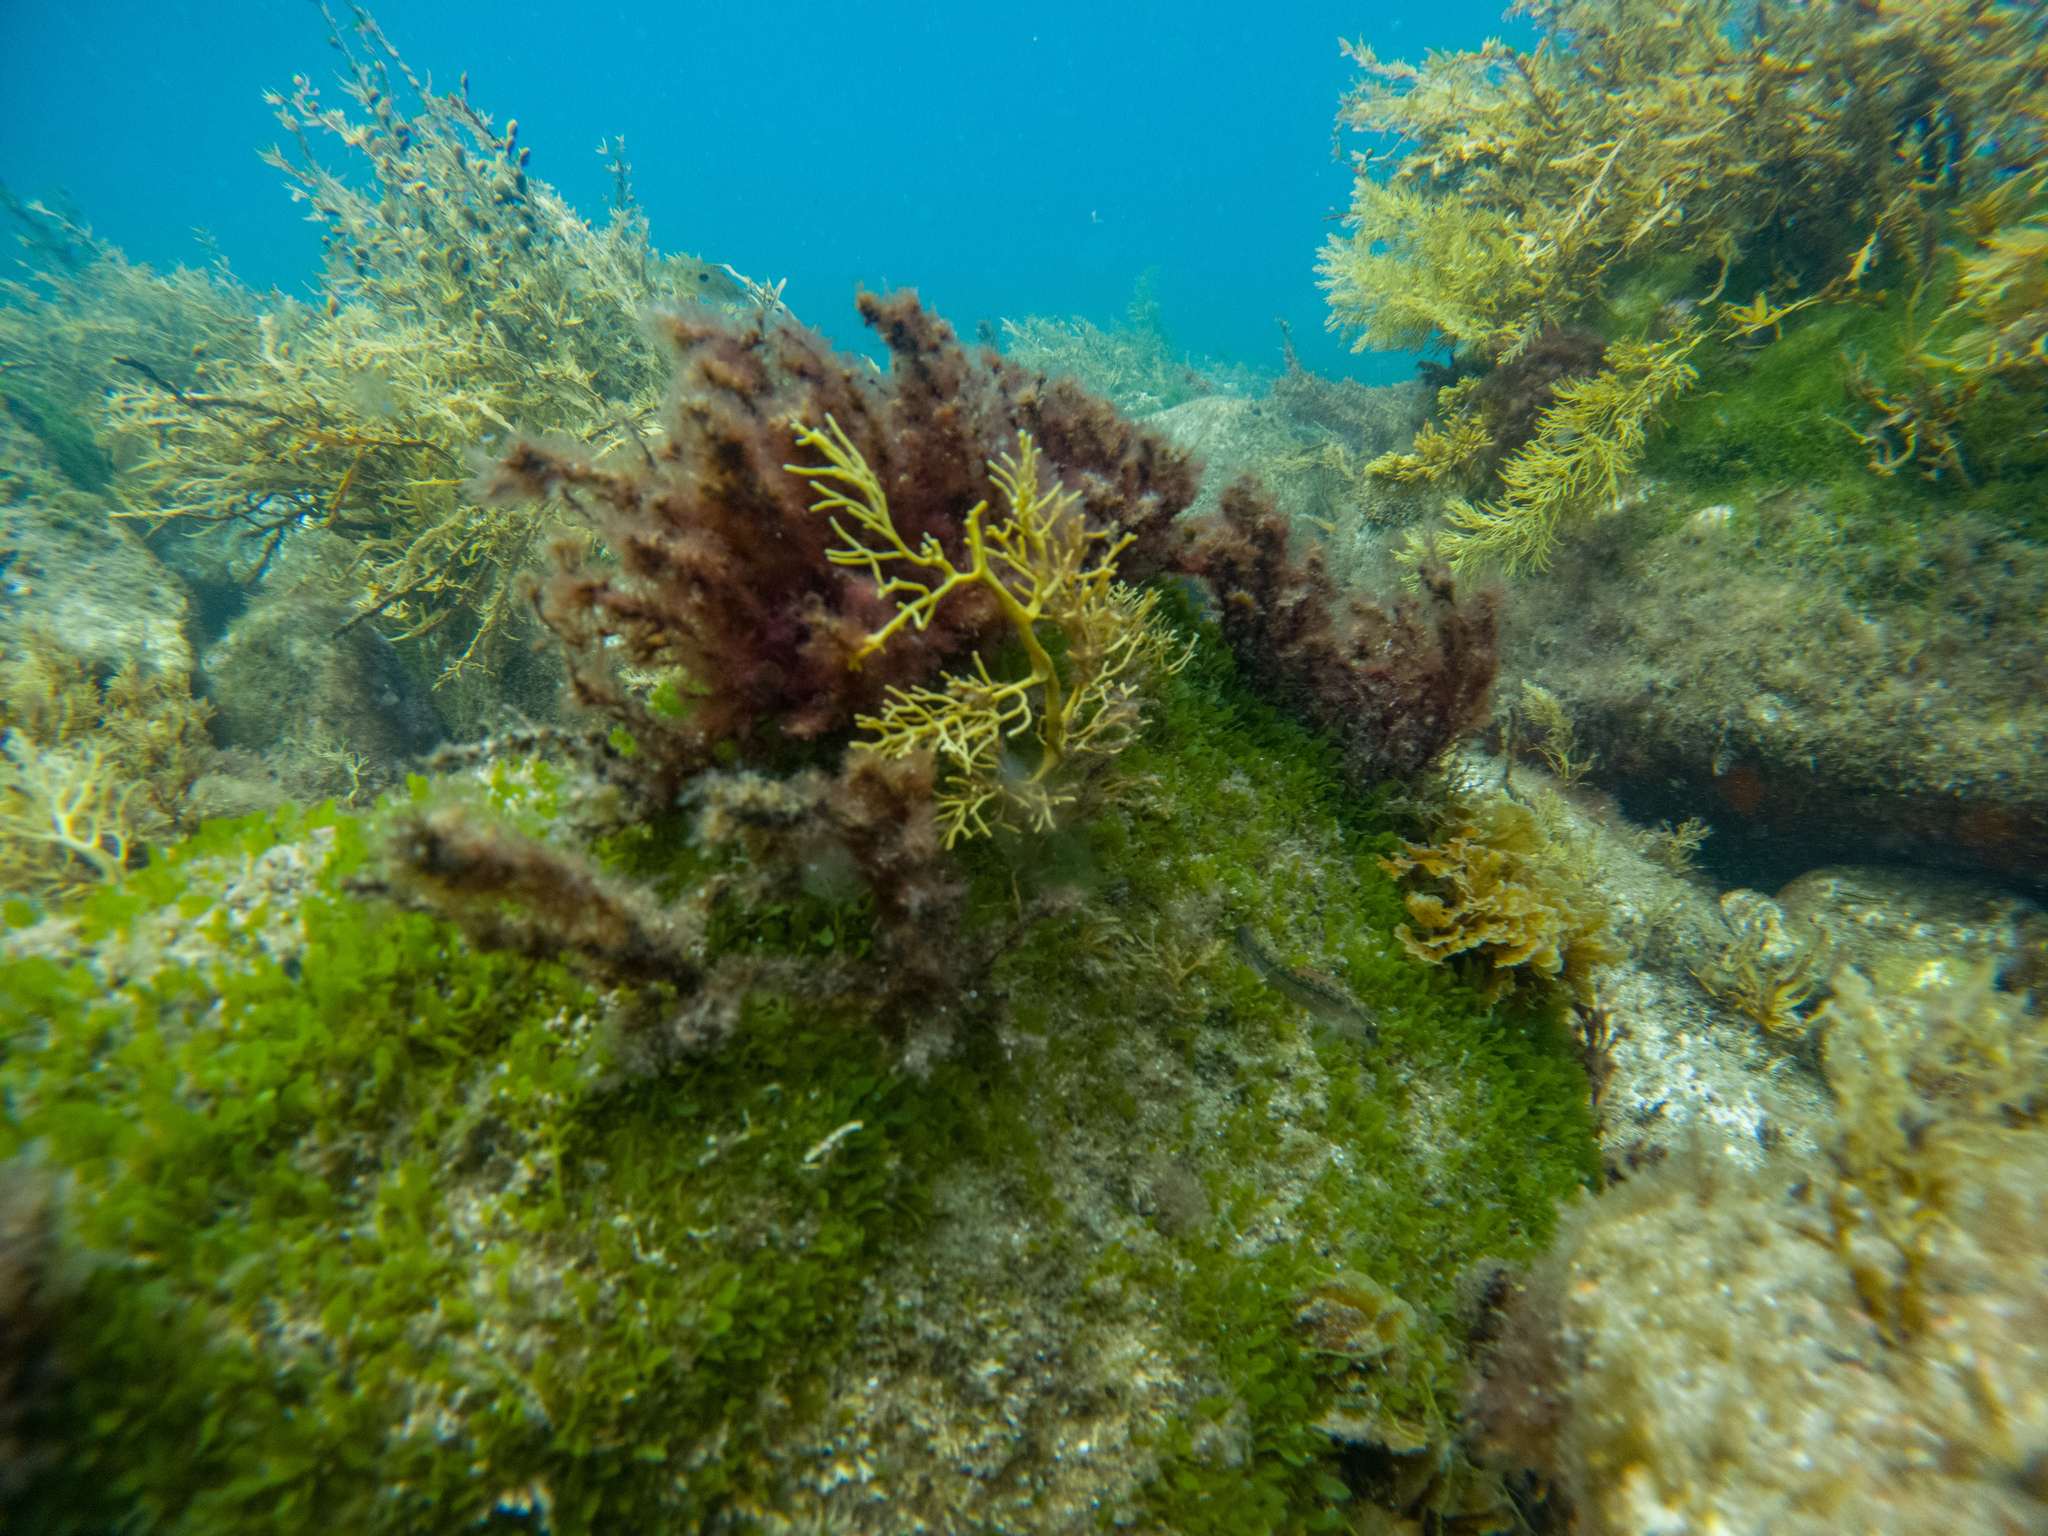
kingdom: Plantae
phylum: Chlorophyta
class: Ulvophyceae
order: Bryopsidales
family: Caulerpaceae
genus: Caulerpa
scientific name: Caulerpa brachypus
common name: Macroalgae
